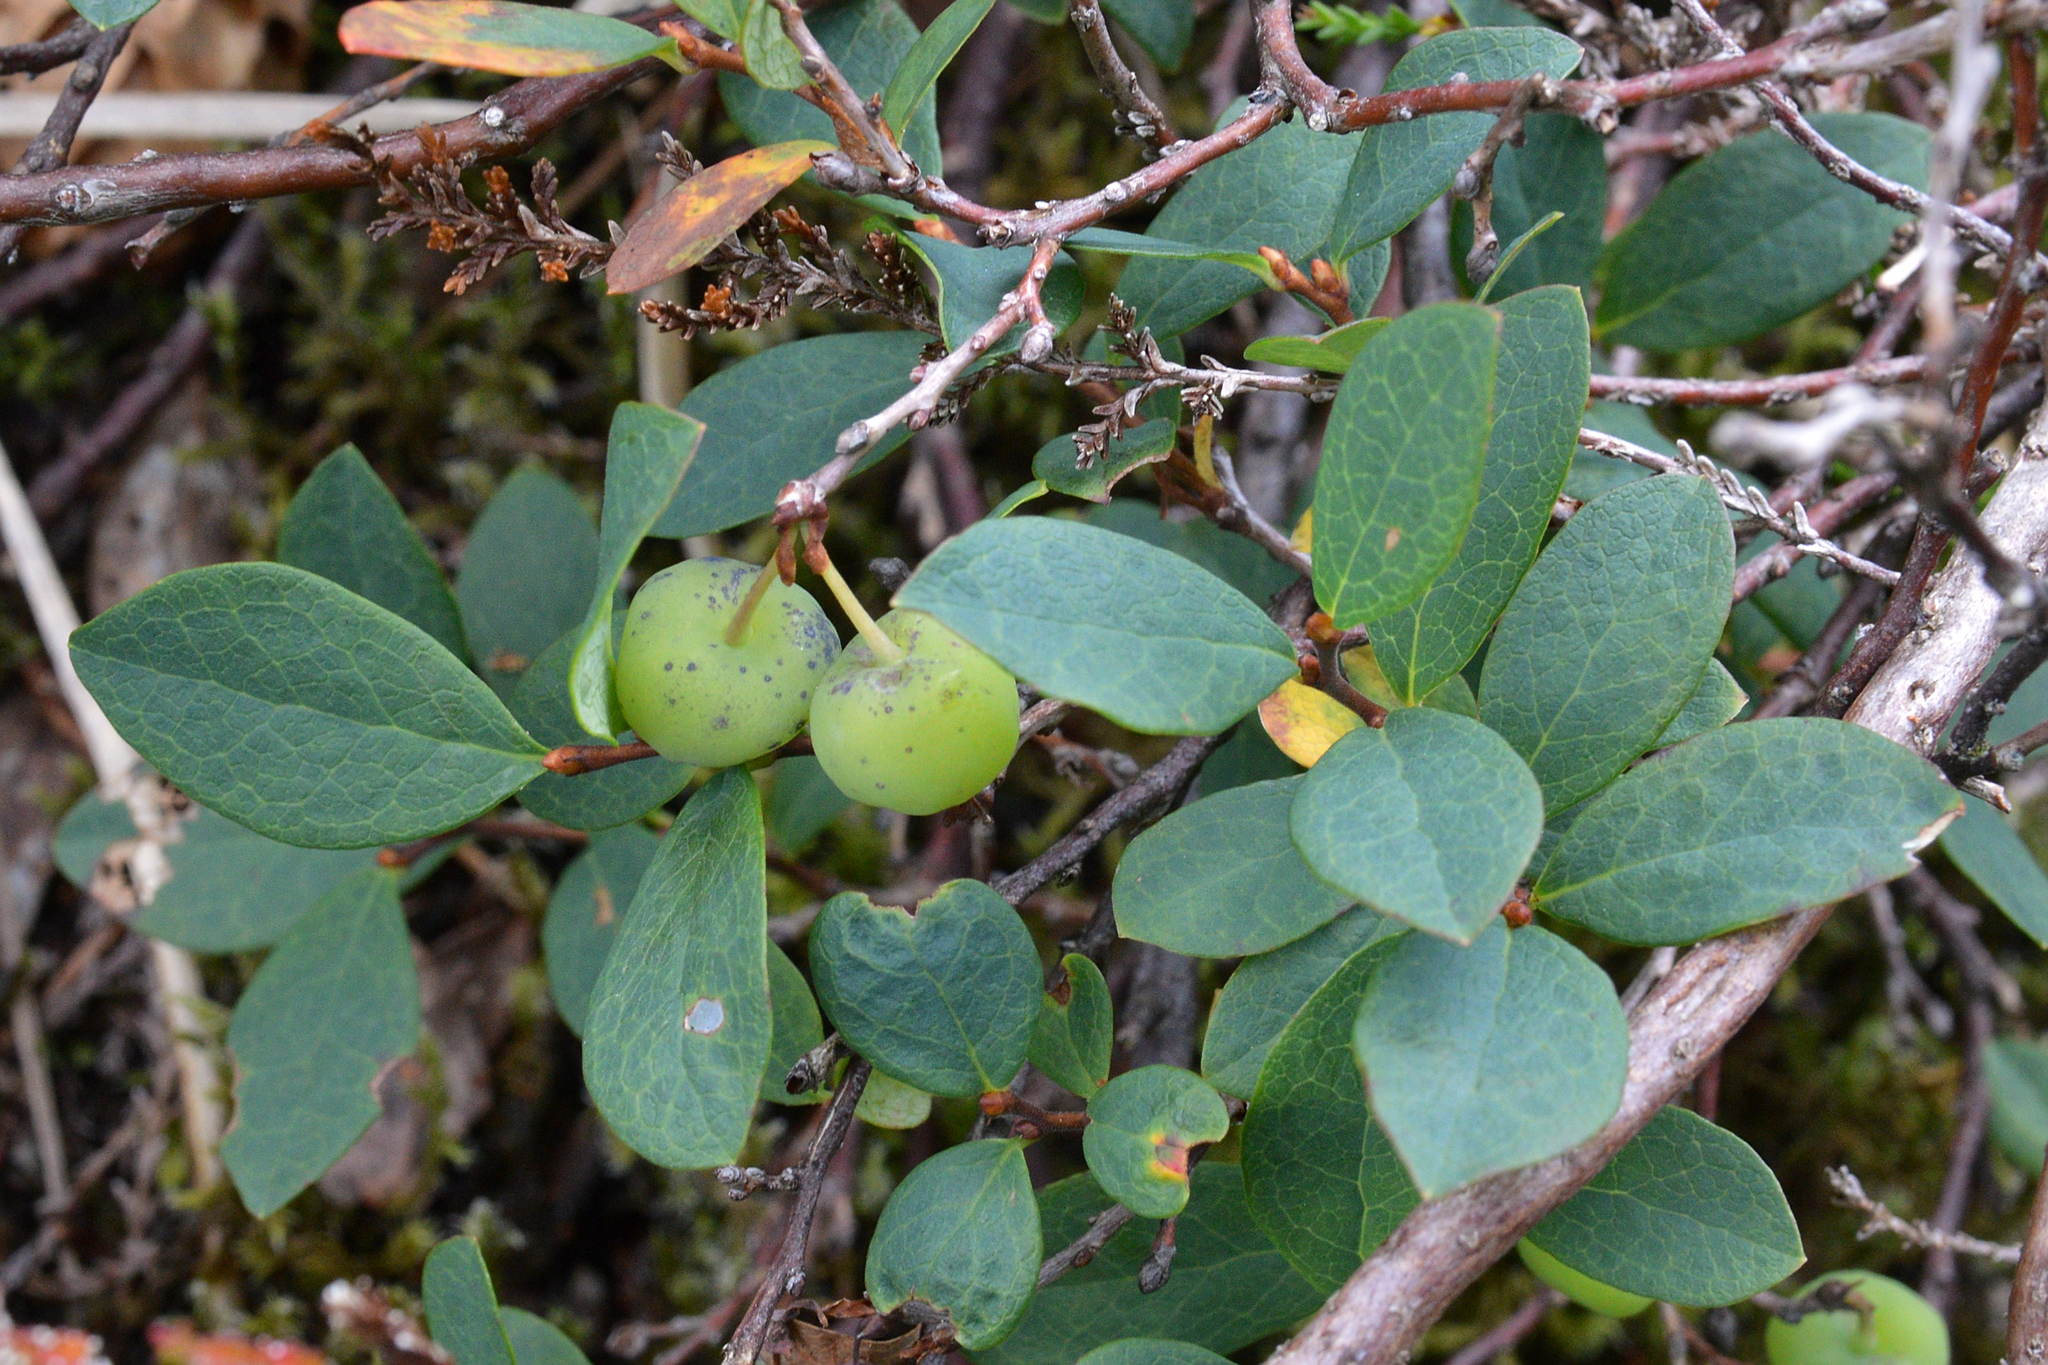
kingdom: Plantae
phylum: Tracheophyta
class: Magnoliopsida
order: Ericales
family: Ericaceae
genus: Vaccinium
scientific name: Vaccinium uliginosum
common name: Bog bilberry
